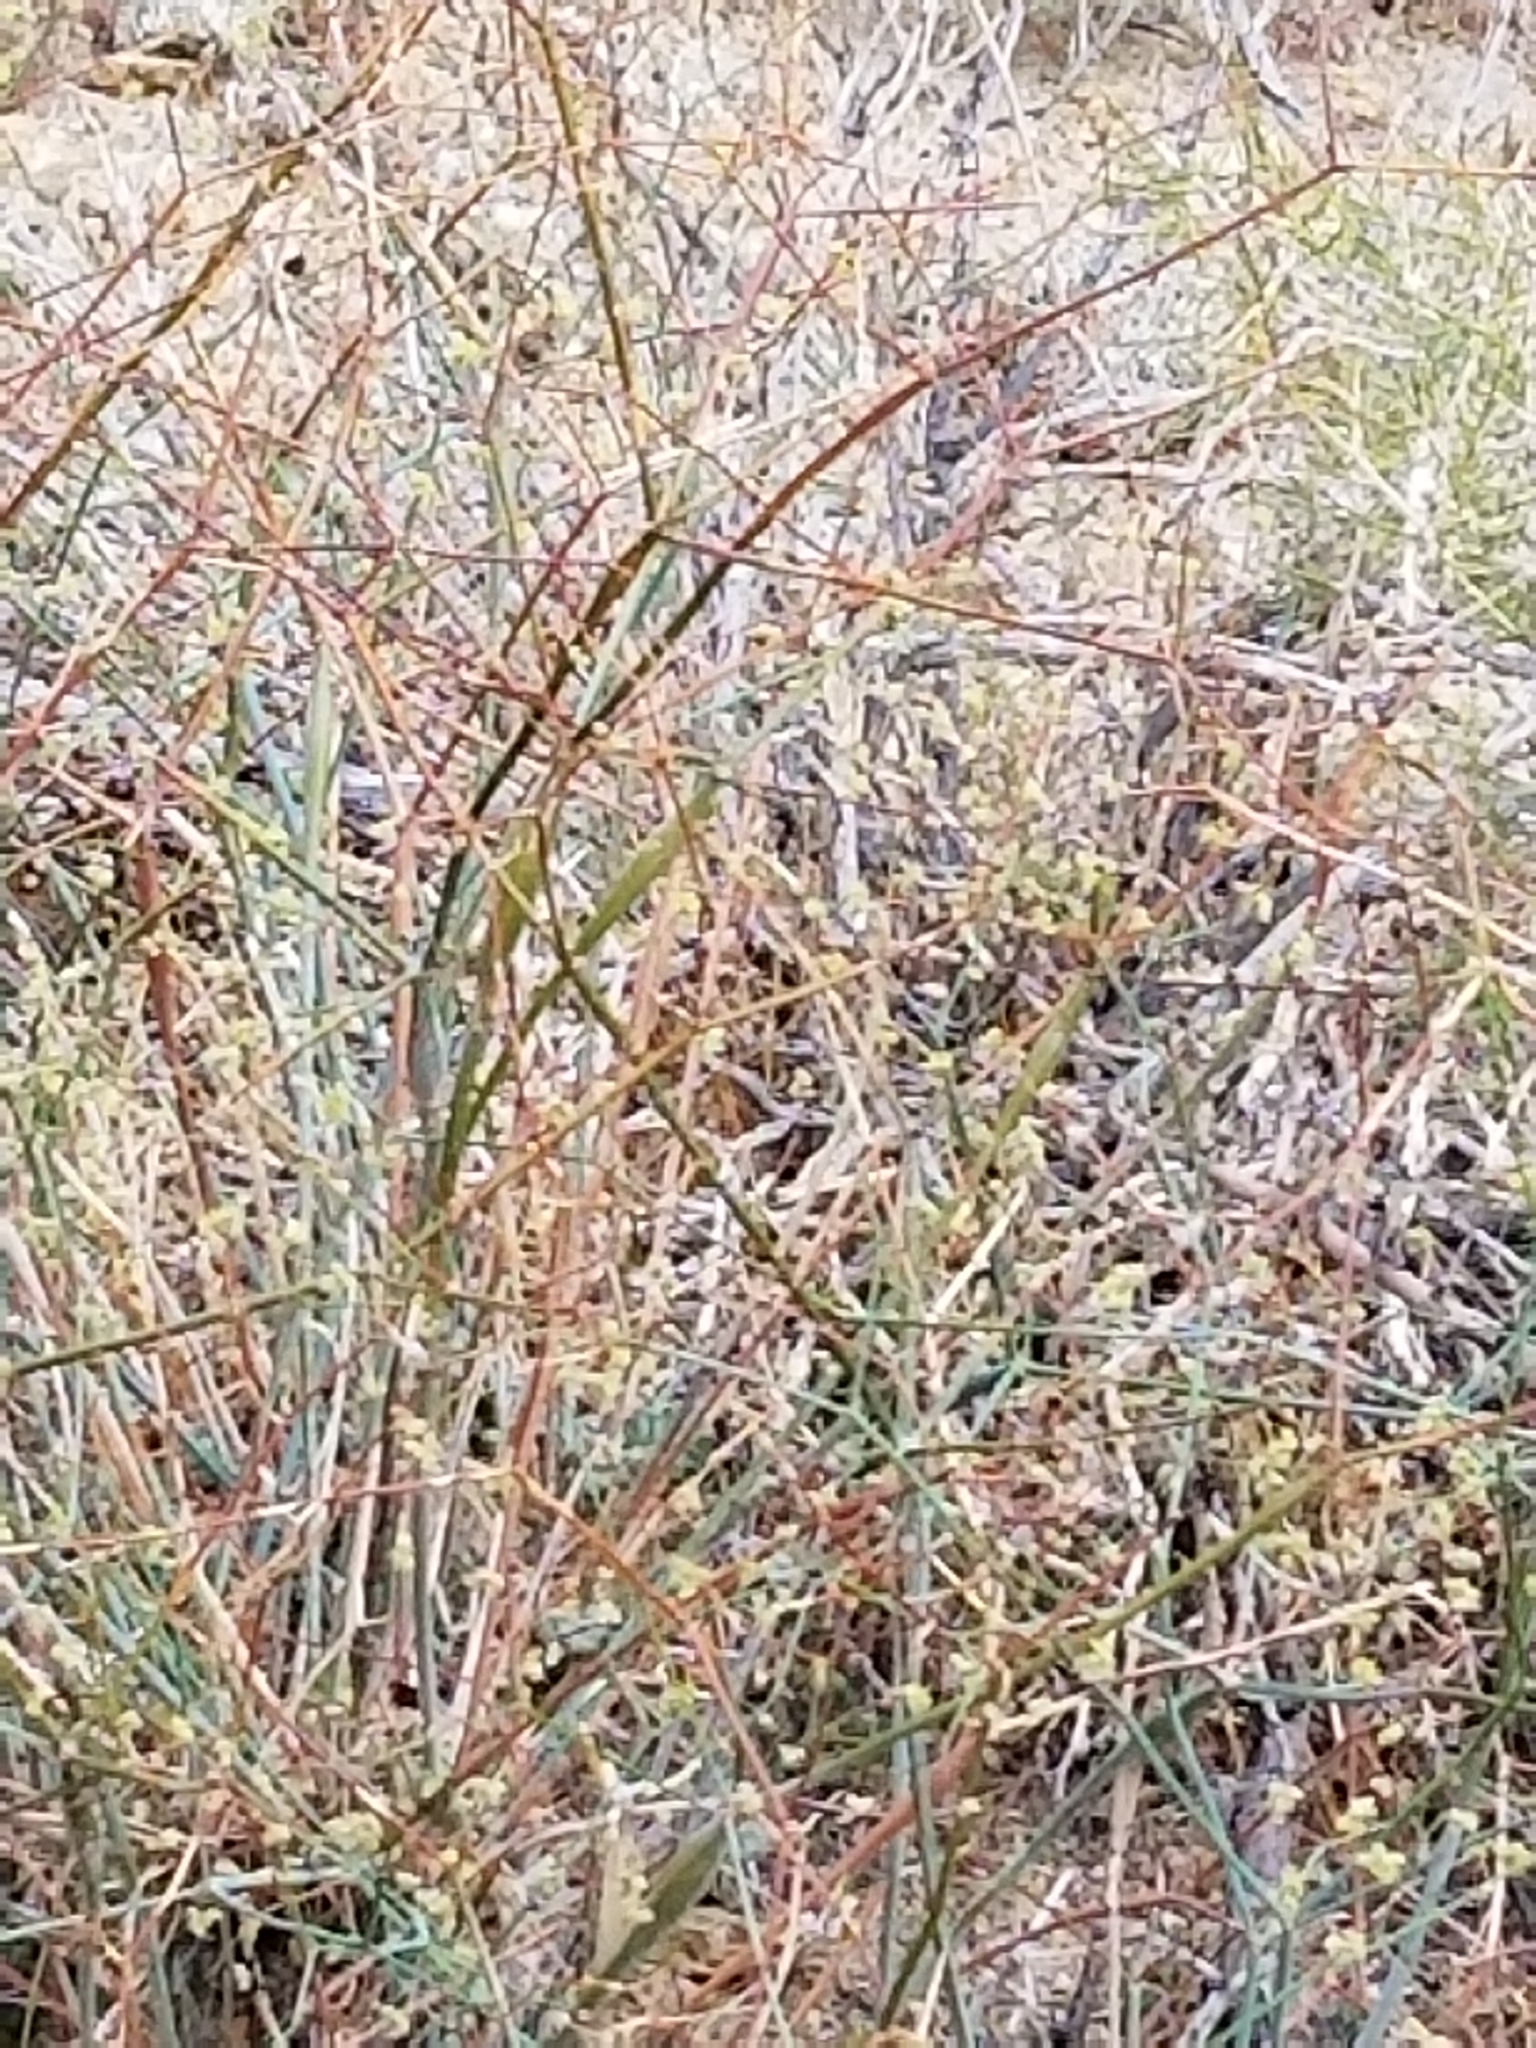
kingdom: Plantae
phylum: Tracheophyta
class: Magnoliopsida
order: Caryophyllales
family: Polygonaceae
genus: Eriogonum
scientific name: Eriogonum inflatum
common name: Desert trumpet
